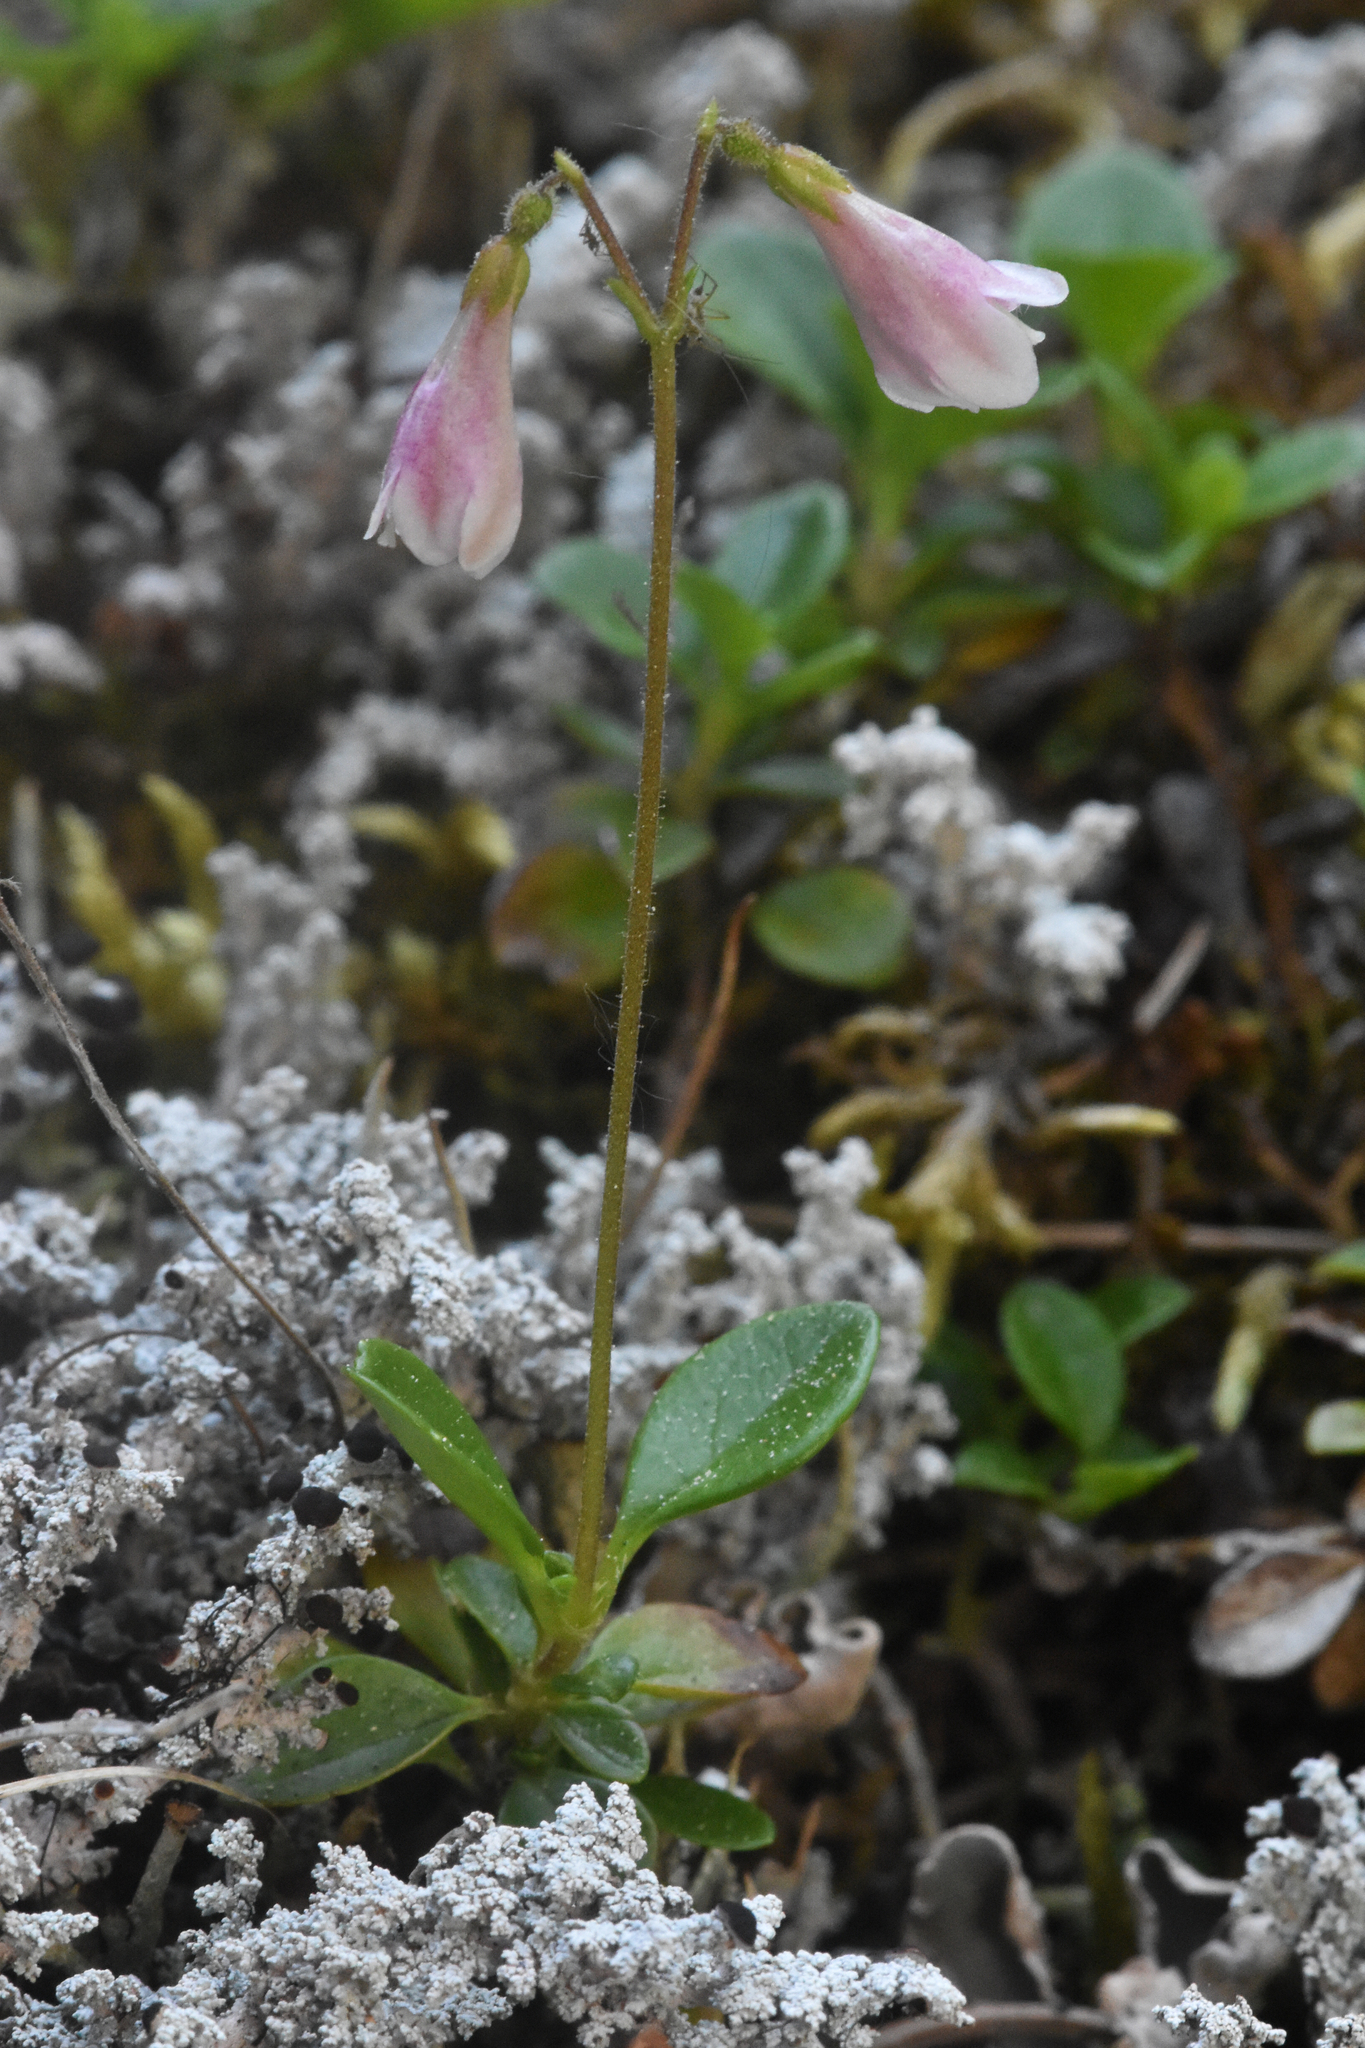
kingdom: Plantae
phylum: Tracheophyta
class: Magnoliopsida
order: Dipsacales
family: Caprifoliaceae
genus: Linnaea
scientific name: Linnaea borealis
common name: Twinflower
